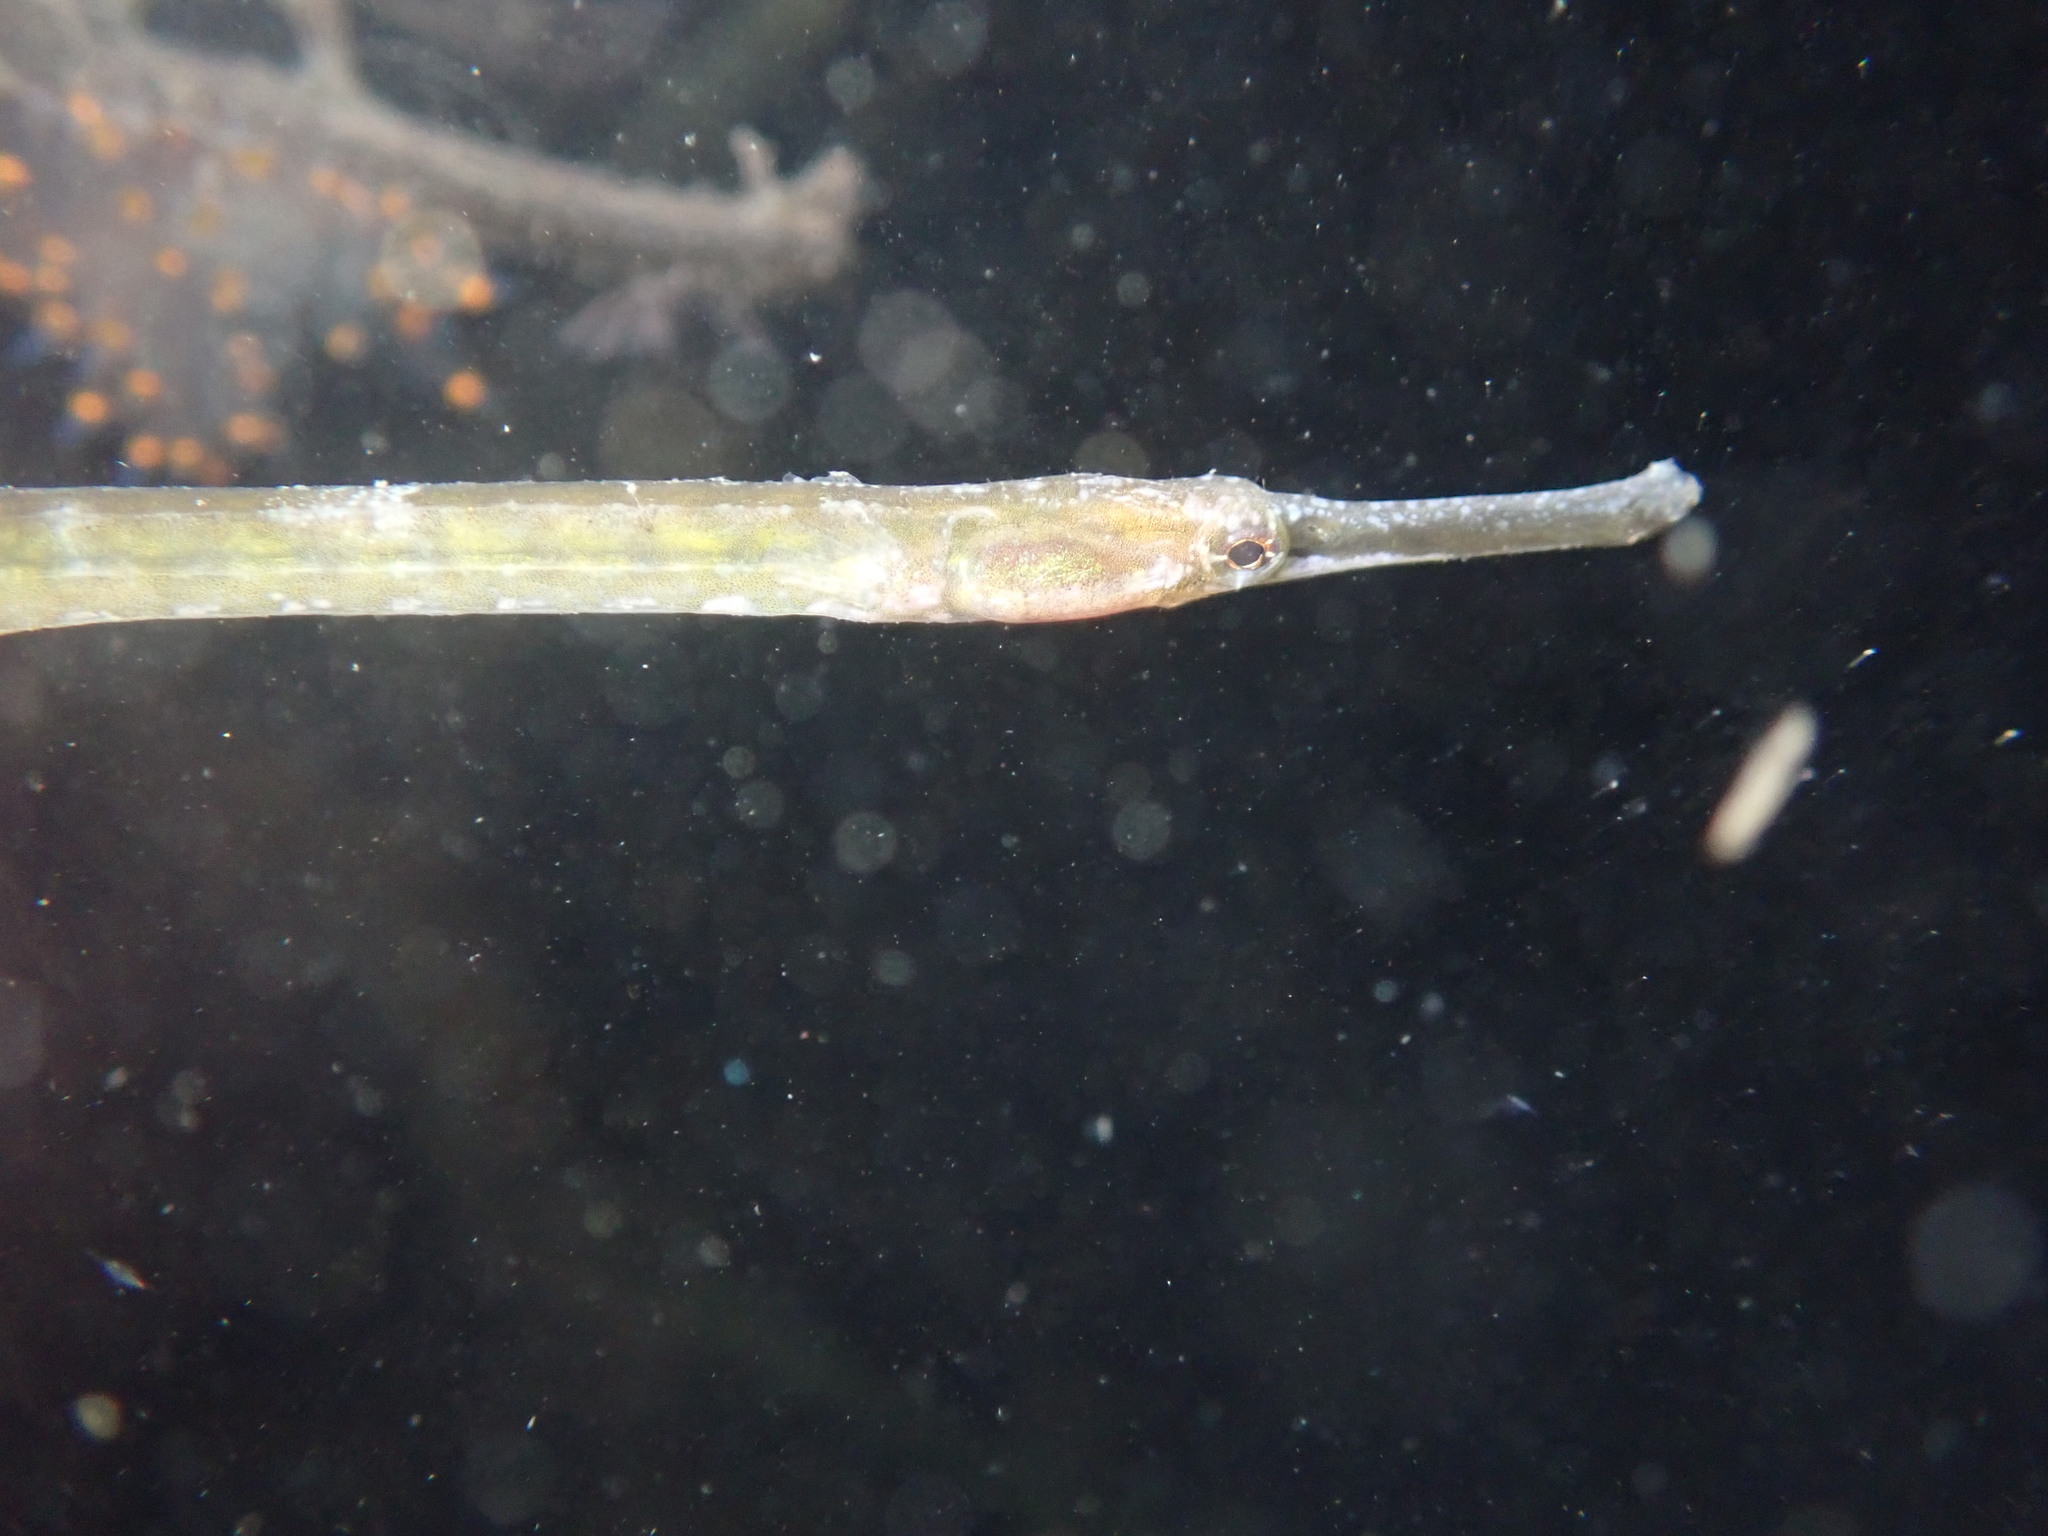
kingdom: Animalia
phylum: Chordata
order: Syngnathiformes
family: Syngnathidae
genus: Syngnathus
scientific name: Syngnathus californiensis
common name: Great pipefish
